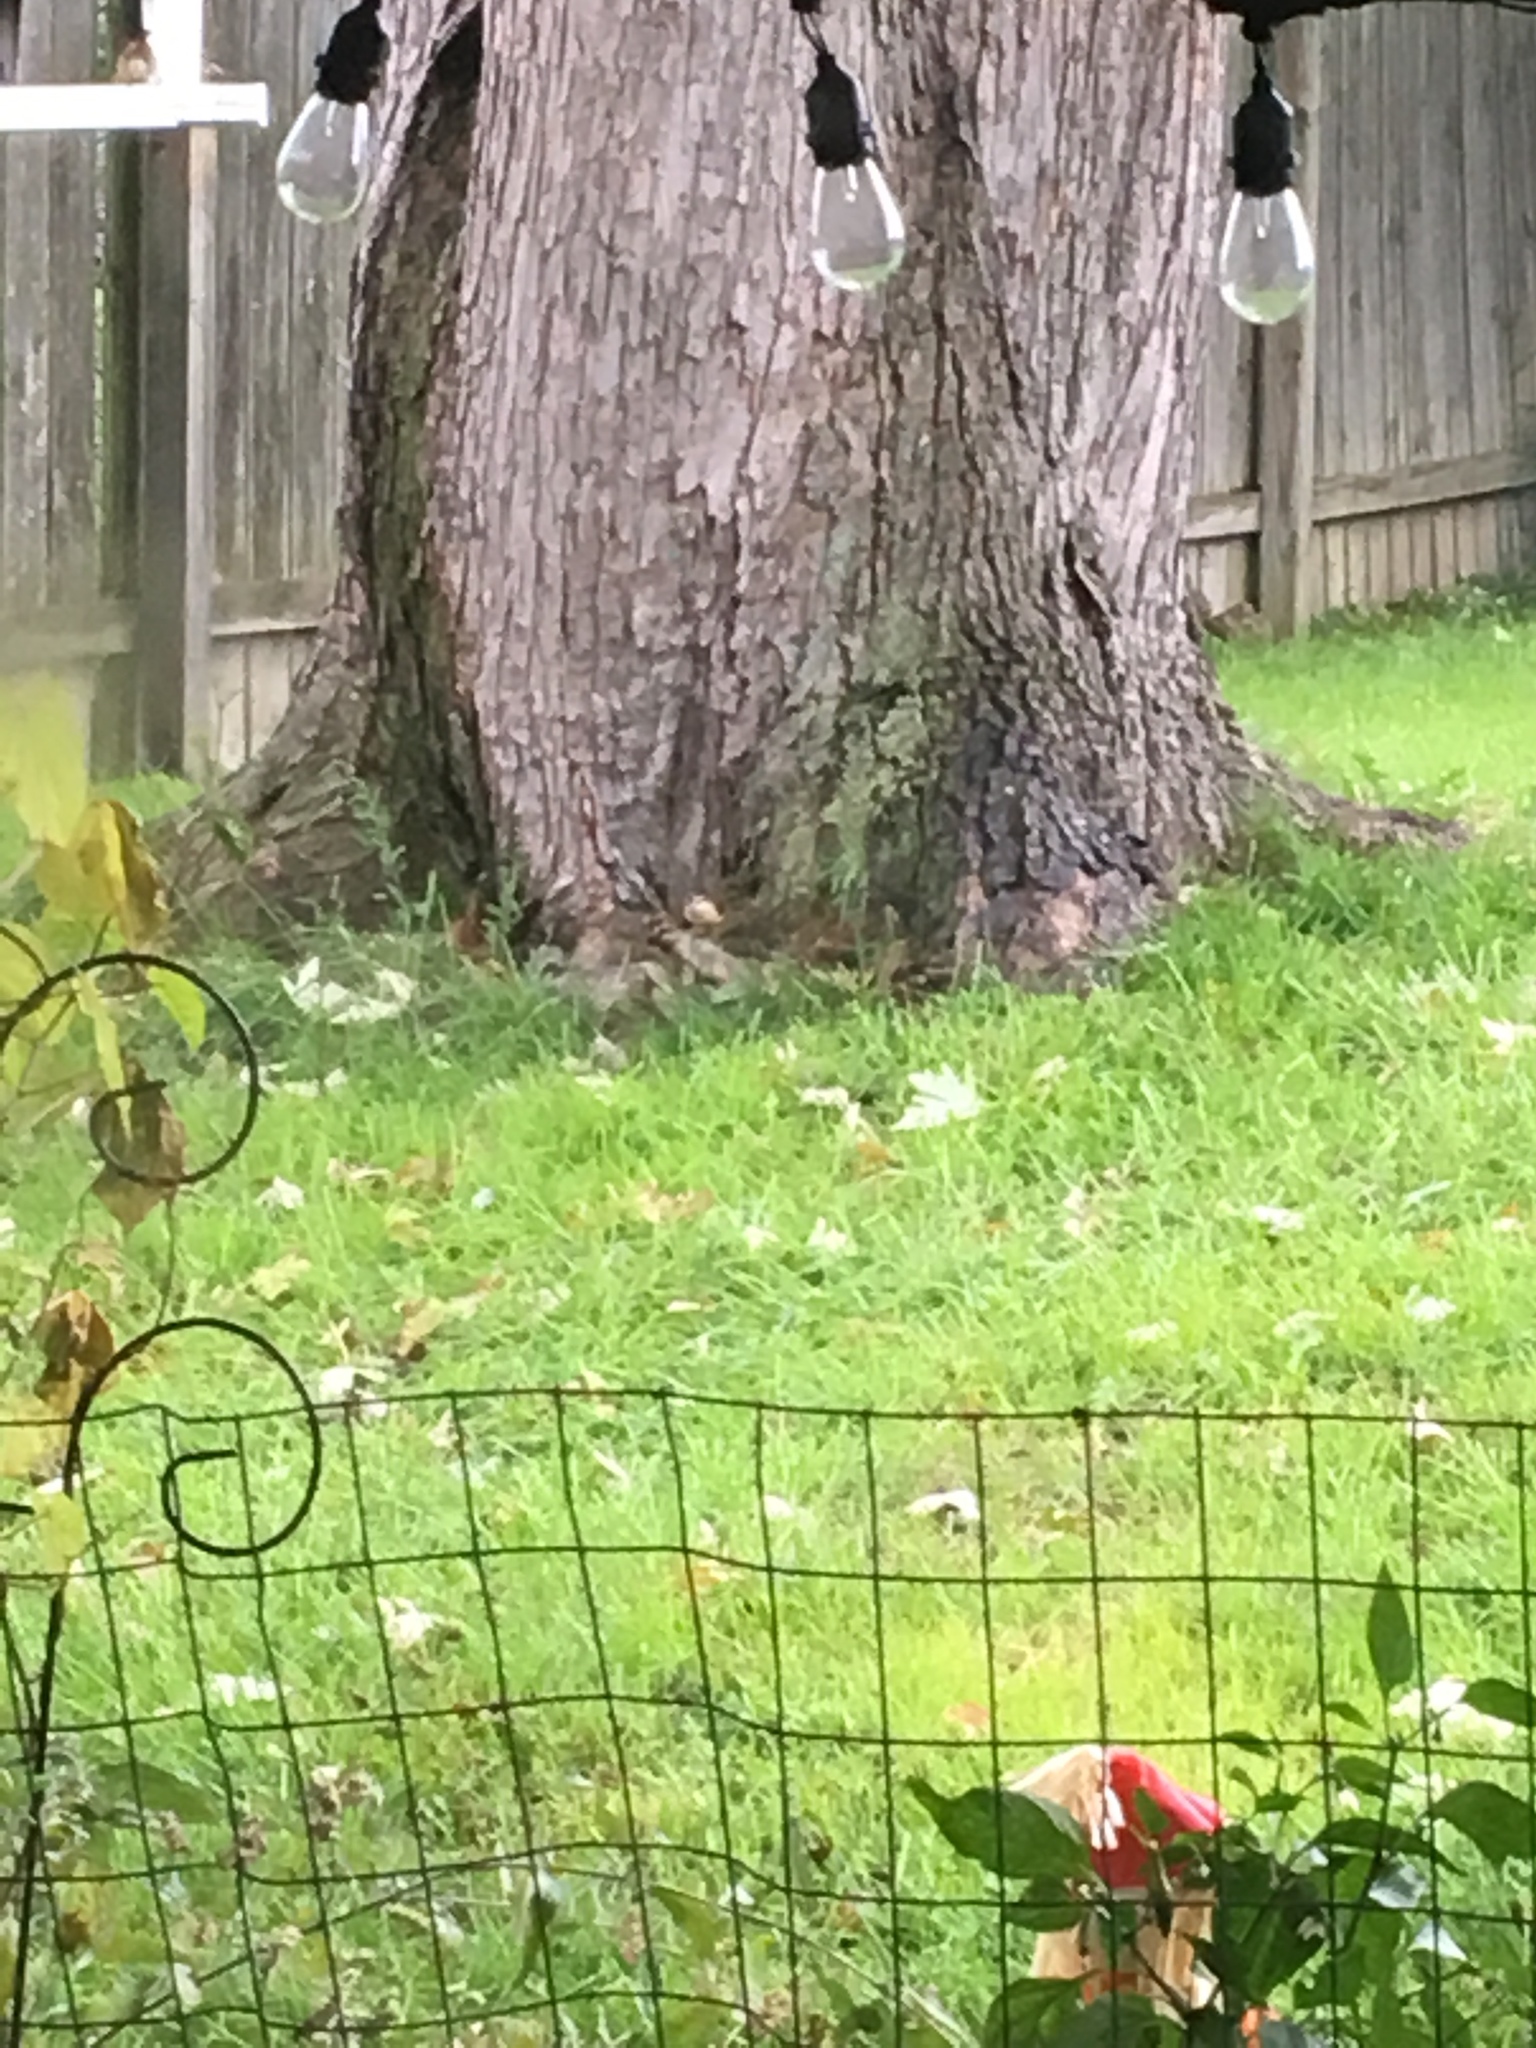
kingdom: Animalia
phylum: Chordata
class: Aves
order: Passeriformes
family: Troglodytidae
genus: Thryothorus
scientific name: Thryothorus ludovicianus
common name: Carolina wren
